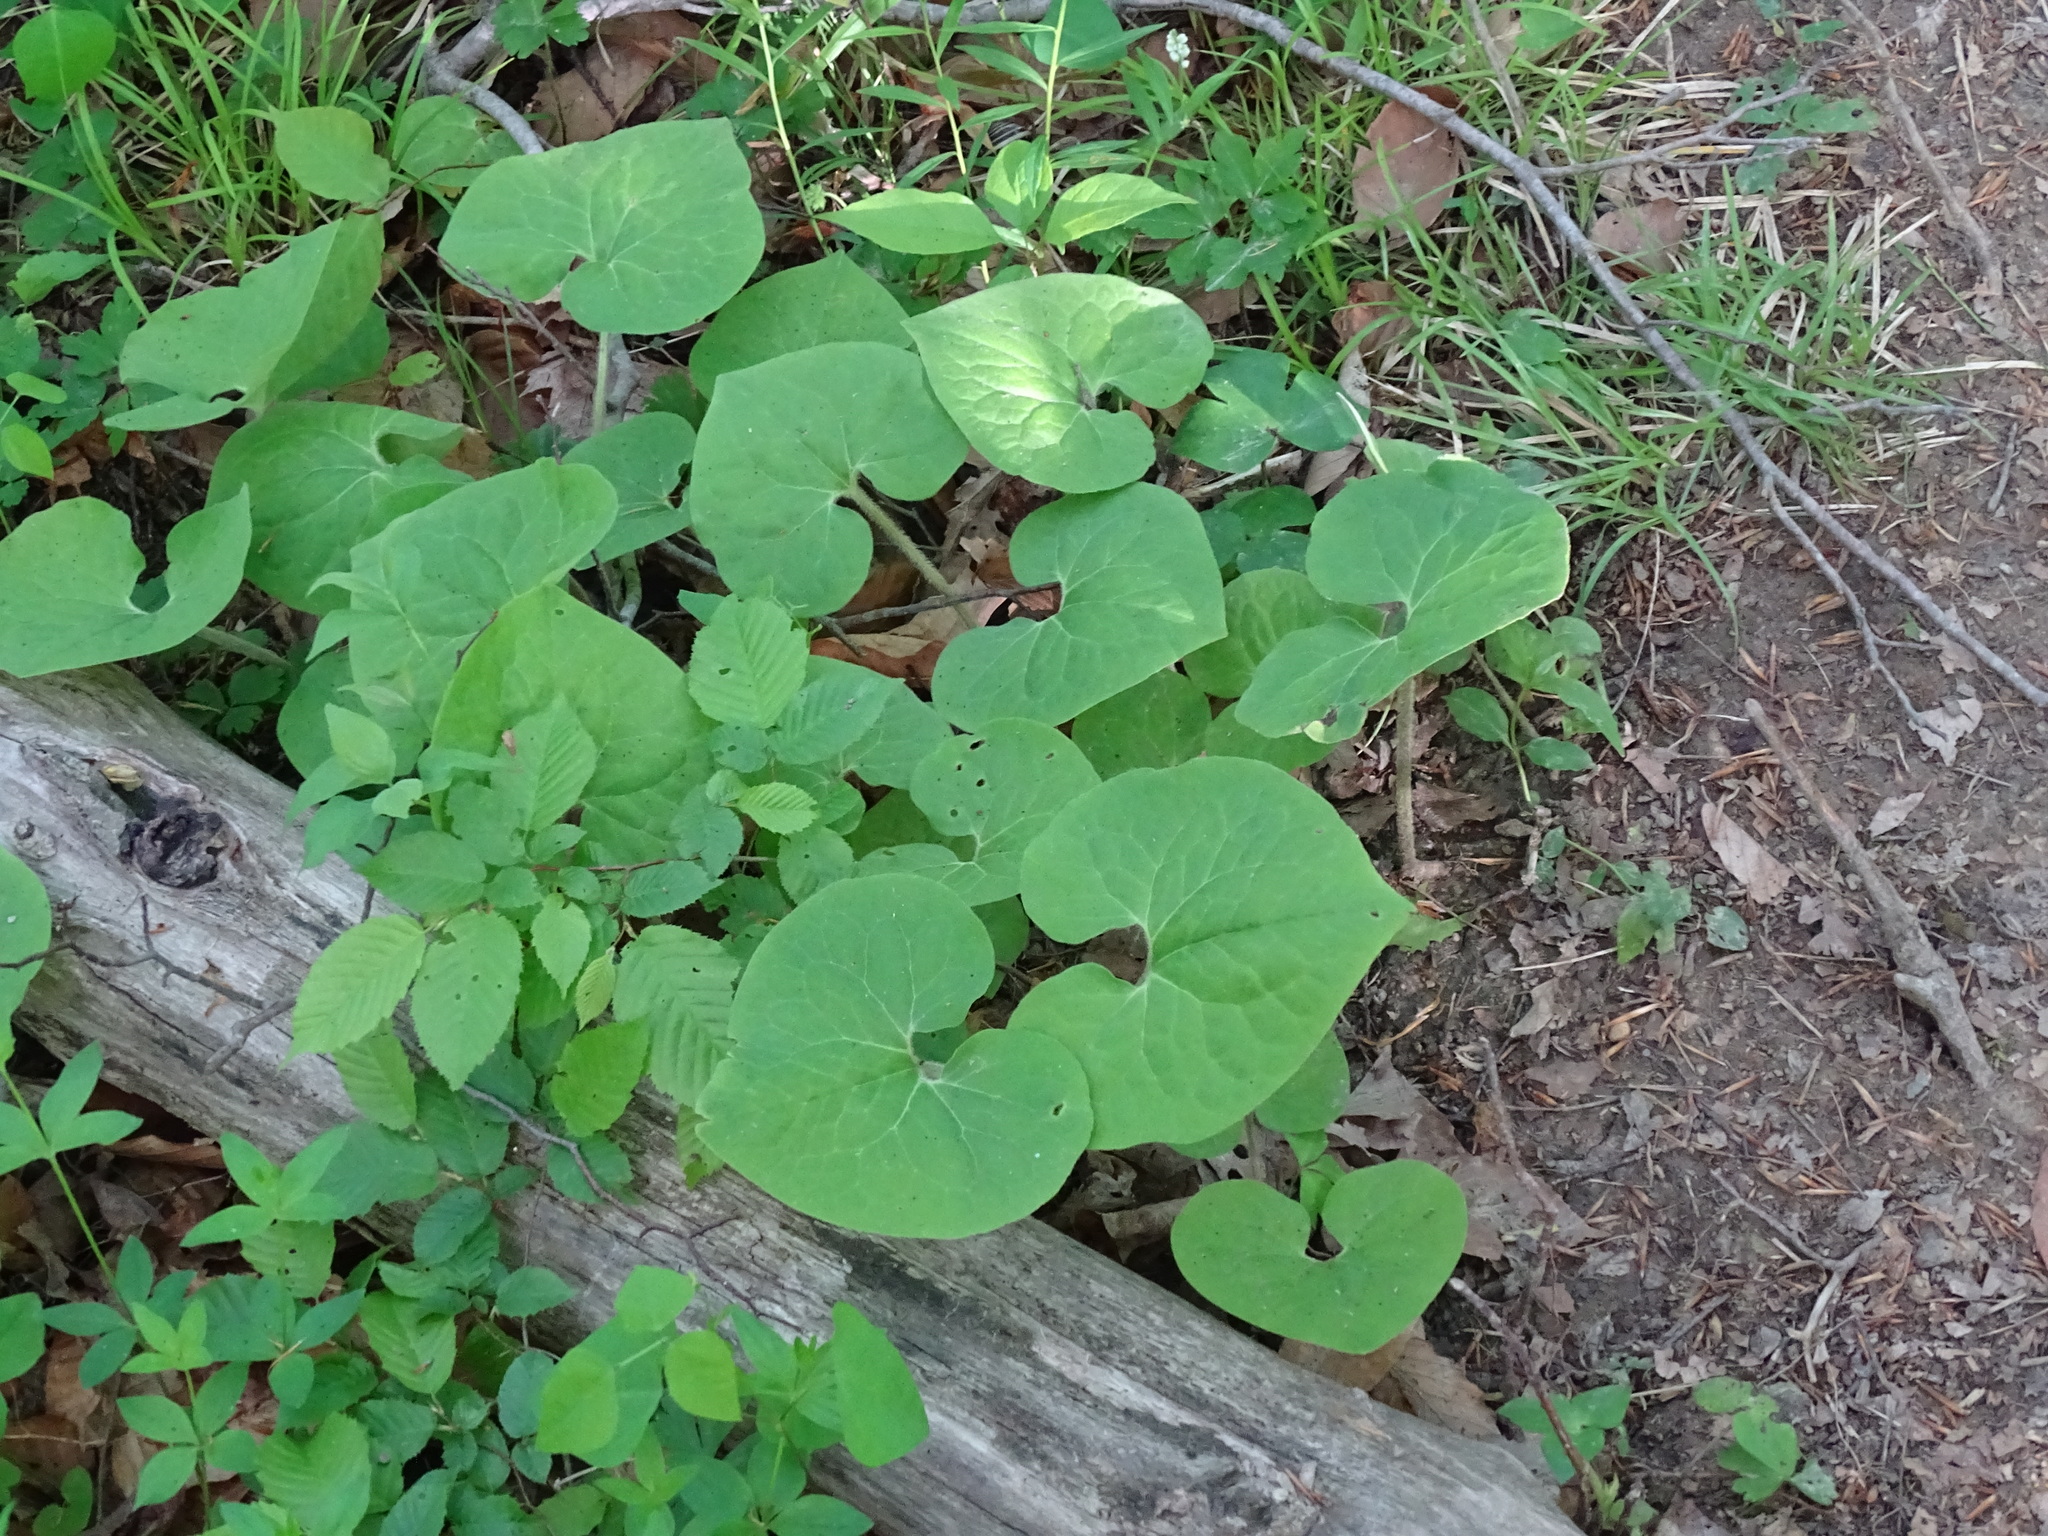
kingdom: Plantae
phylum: Tracheophyta
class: Magnoliopsida
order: Piperales
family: Aristolochiaceae
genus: Asarum
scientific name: Asarum canadense
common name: Wild ginger
